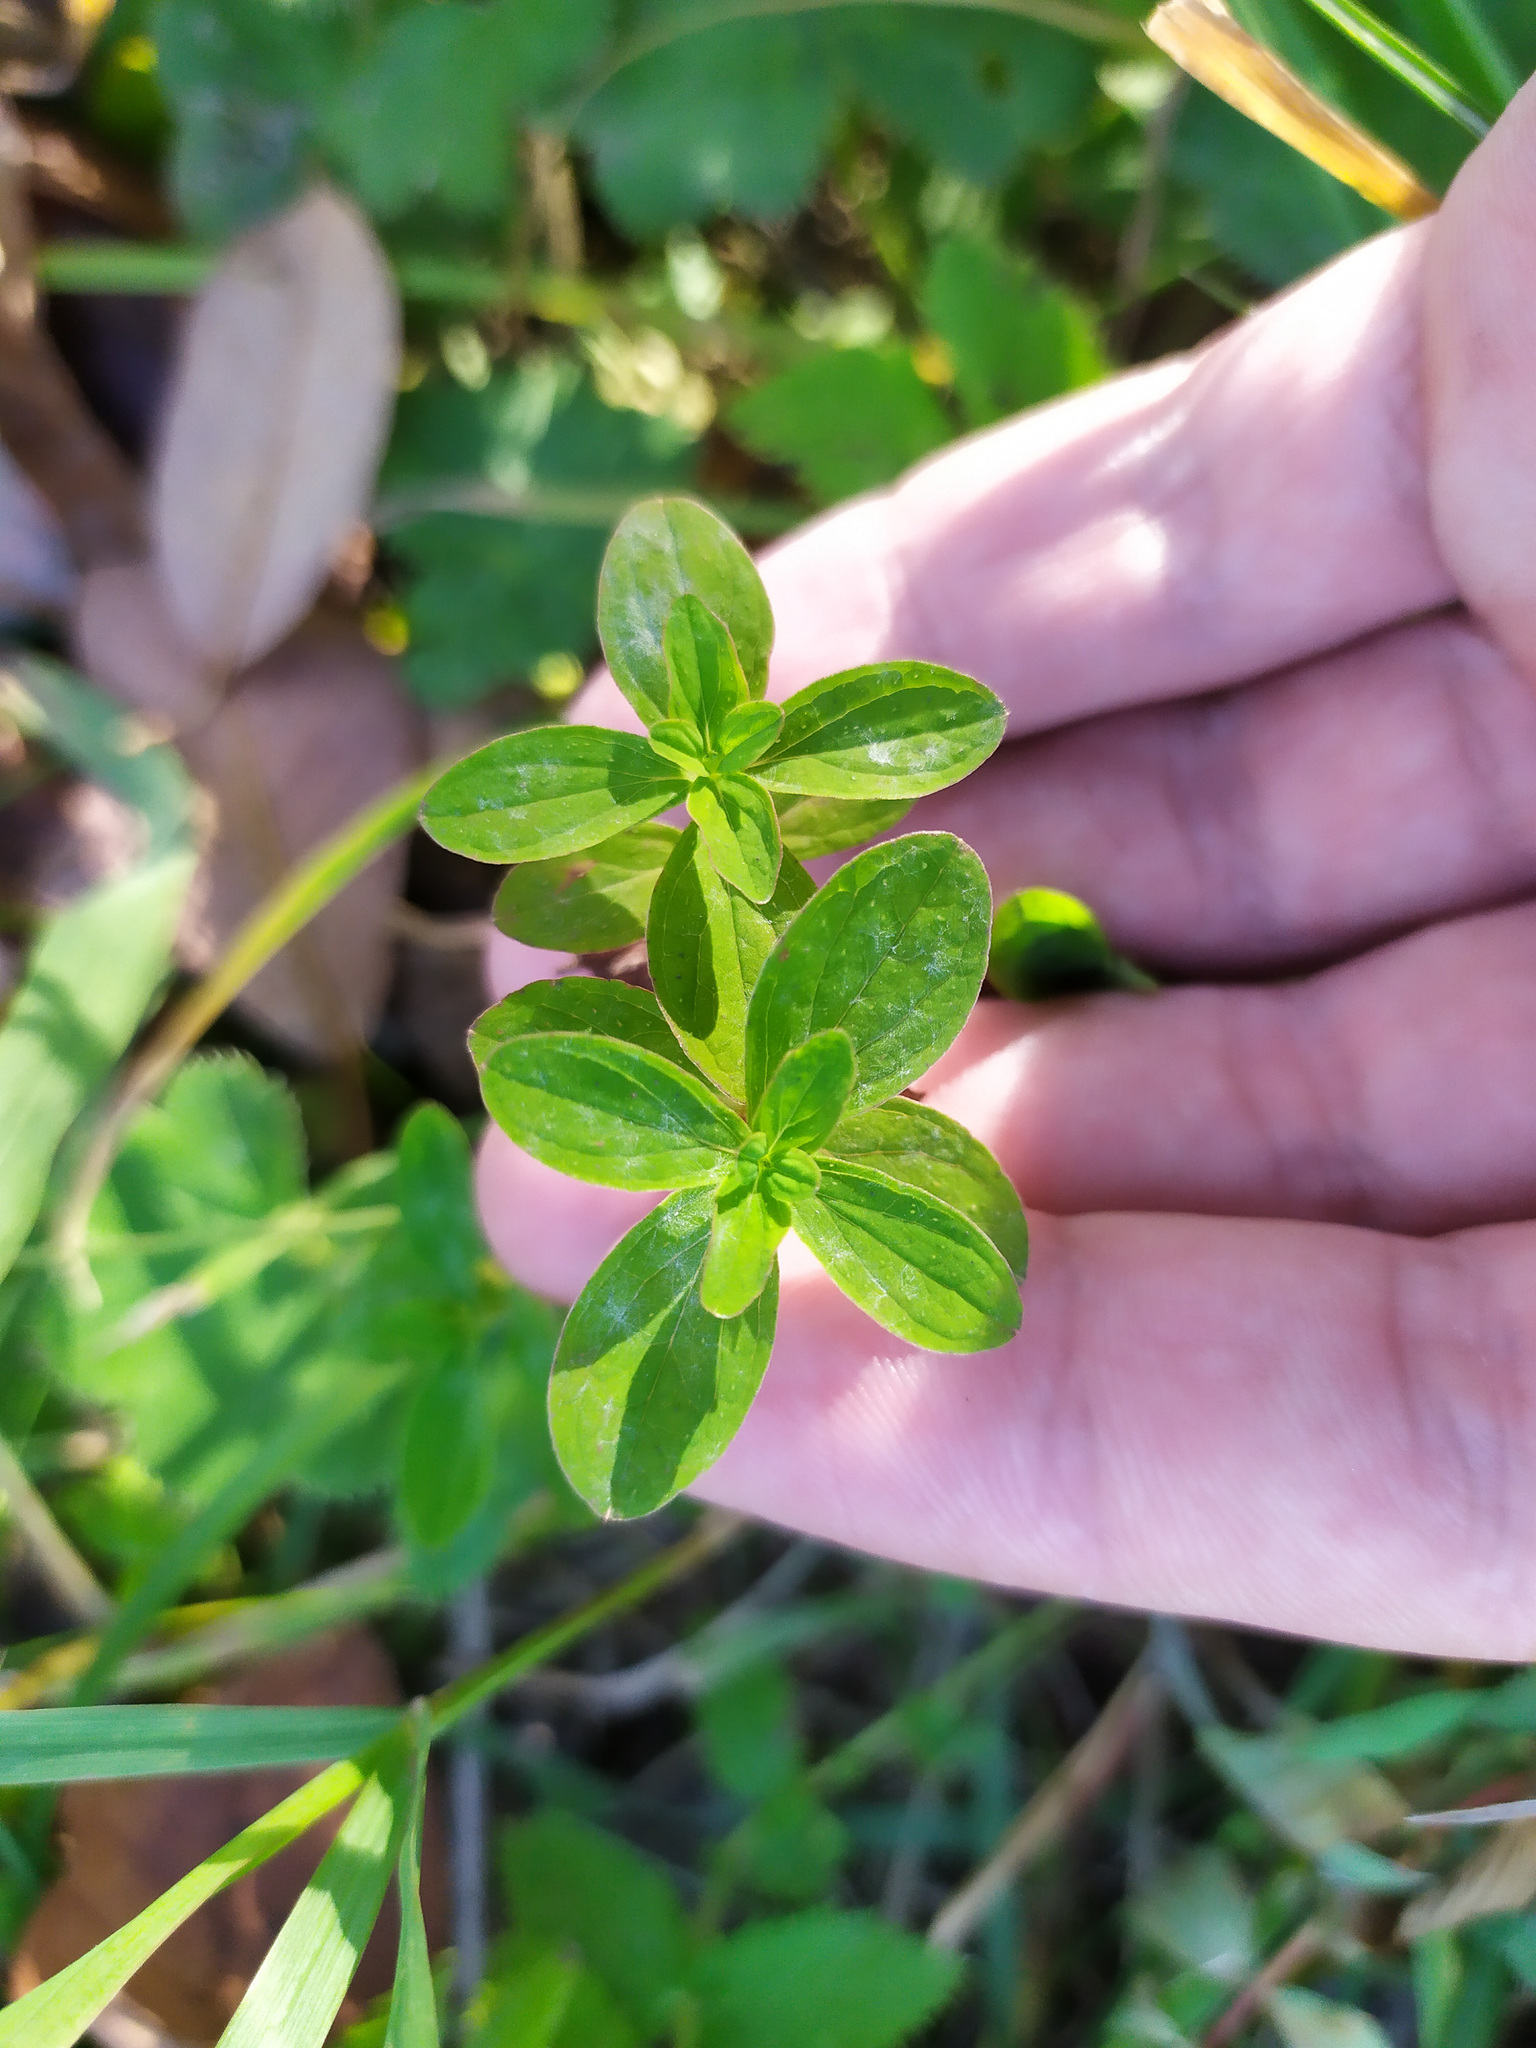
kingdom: Plantae
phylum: Tracheophyta
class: Magnoliopsida
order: Malpighiales
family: Hypericaceae
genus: Hypericum
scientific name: Hypericum maculatum
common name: Imperforate st. john's-wort
